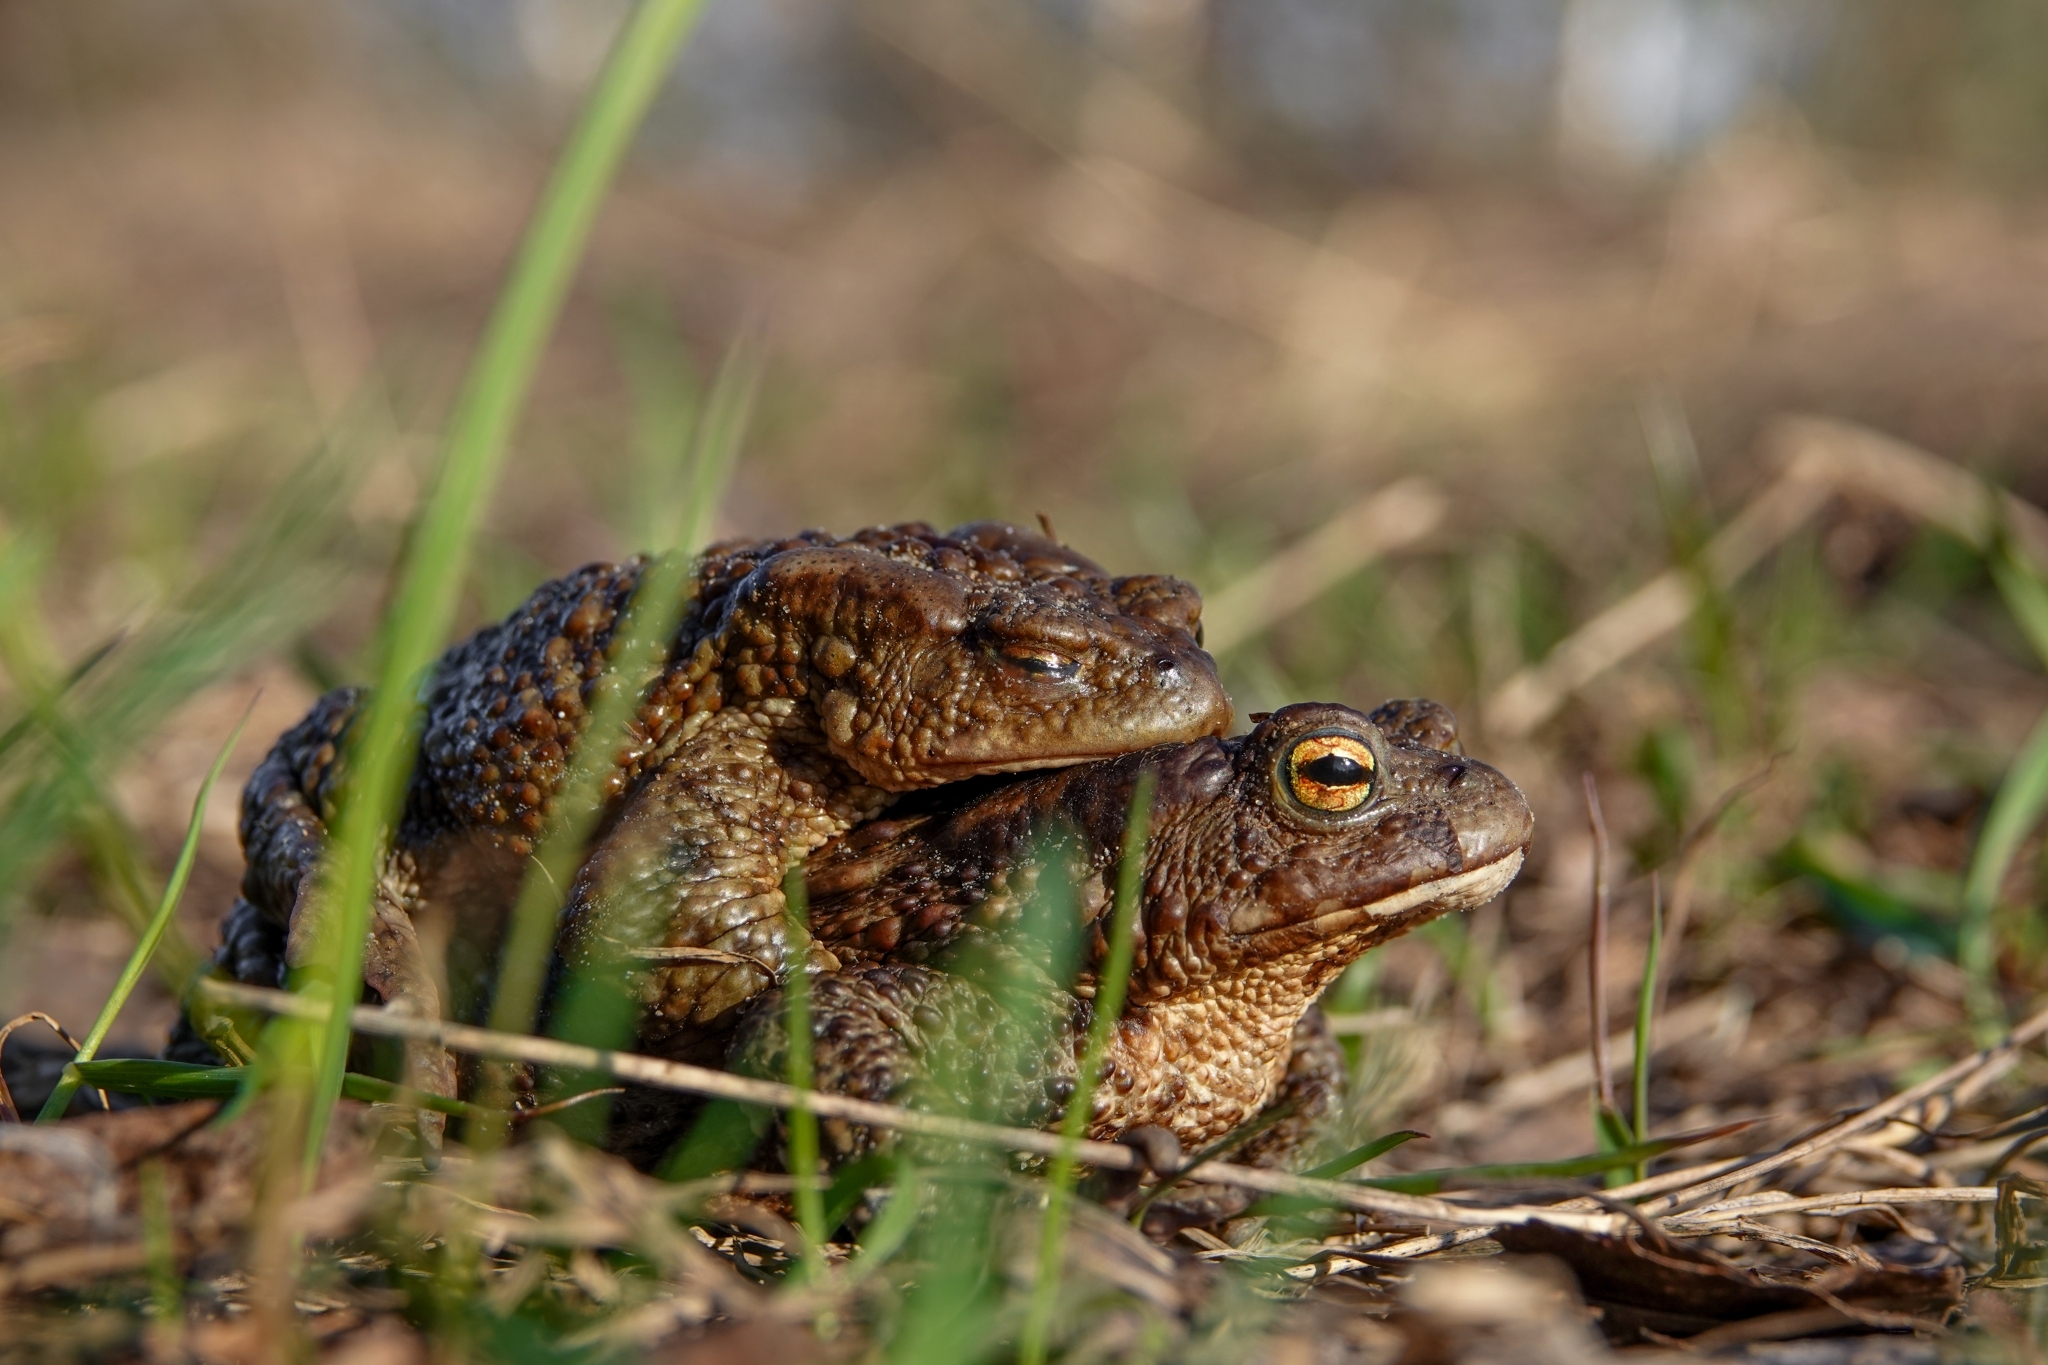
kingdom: Animalia
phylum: Chordata
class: Amphibia
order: Anura
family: Bufonidae
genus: Bufo
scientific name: Bufo bufo
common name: Common toad
